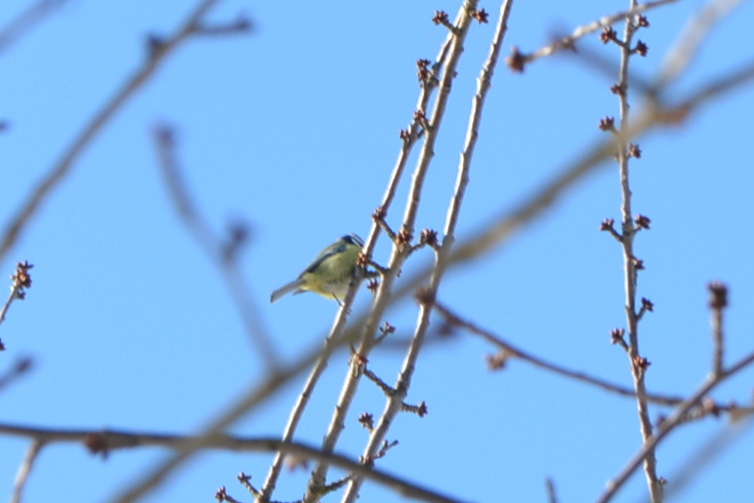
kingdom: Animalia
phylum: Chordata
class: Aves
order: Passeriformes
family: Paridae
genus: Cyanistes
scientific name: Cyanistes caeruleus
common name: Eurasian blue tit
